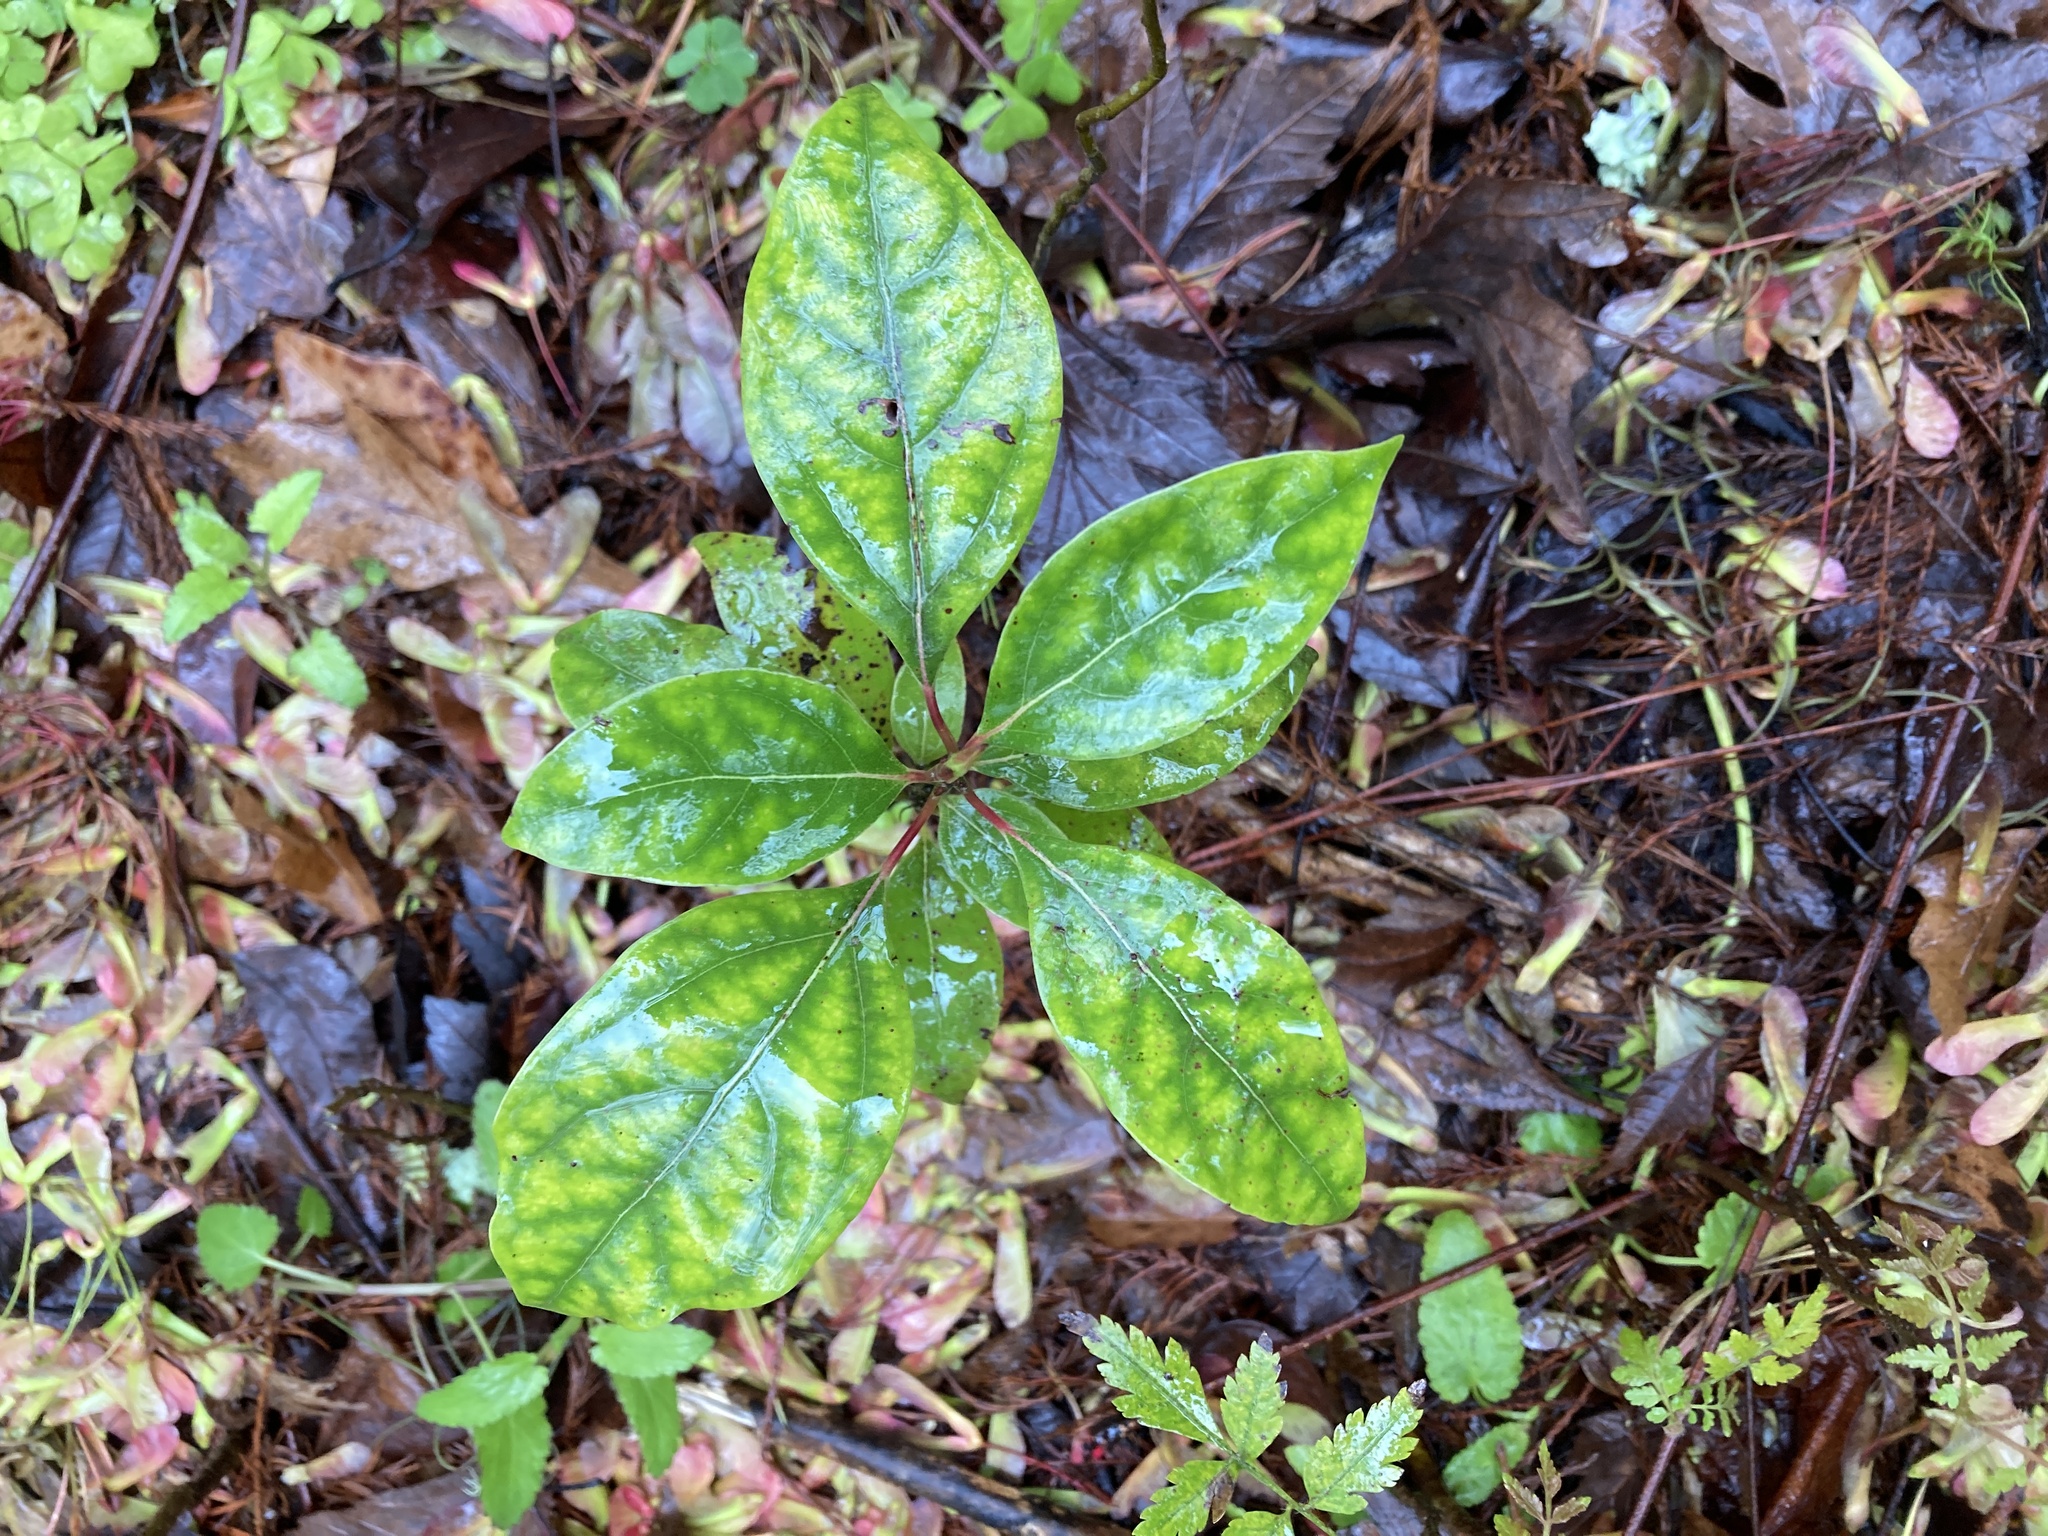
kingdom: Plantae
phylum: Tracheophyta
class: Magnoliopsida
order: Laurales
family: Lauraceae
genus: Cinnamomum
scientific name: Cinnamomum camphora
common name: Camphortree
